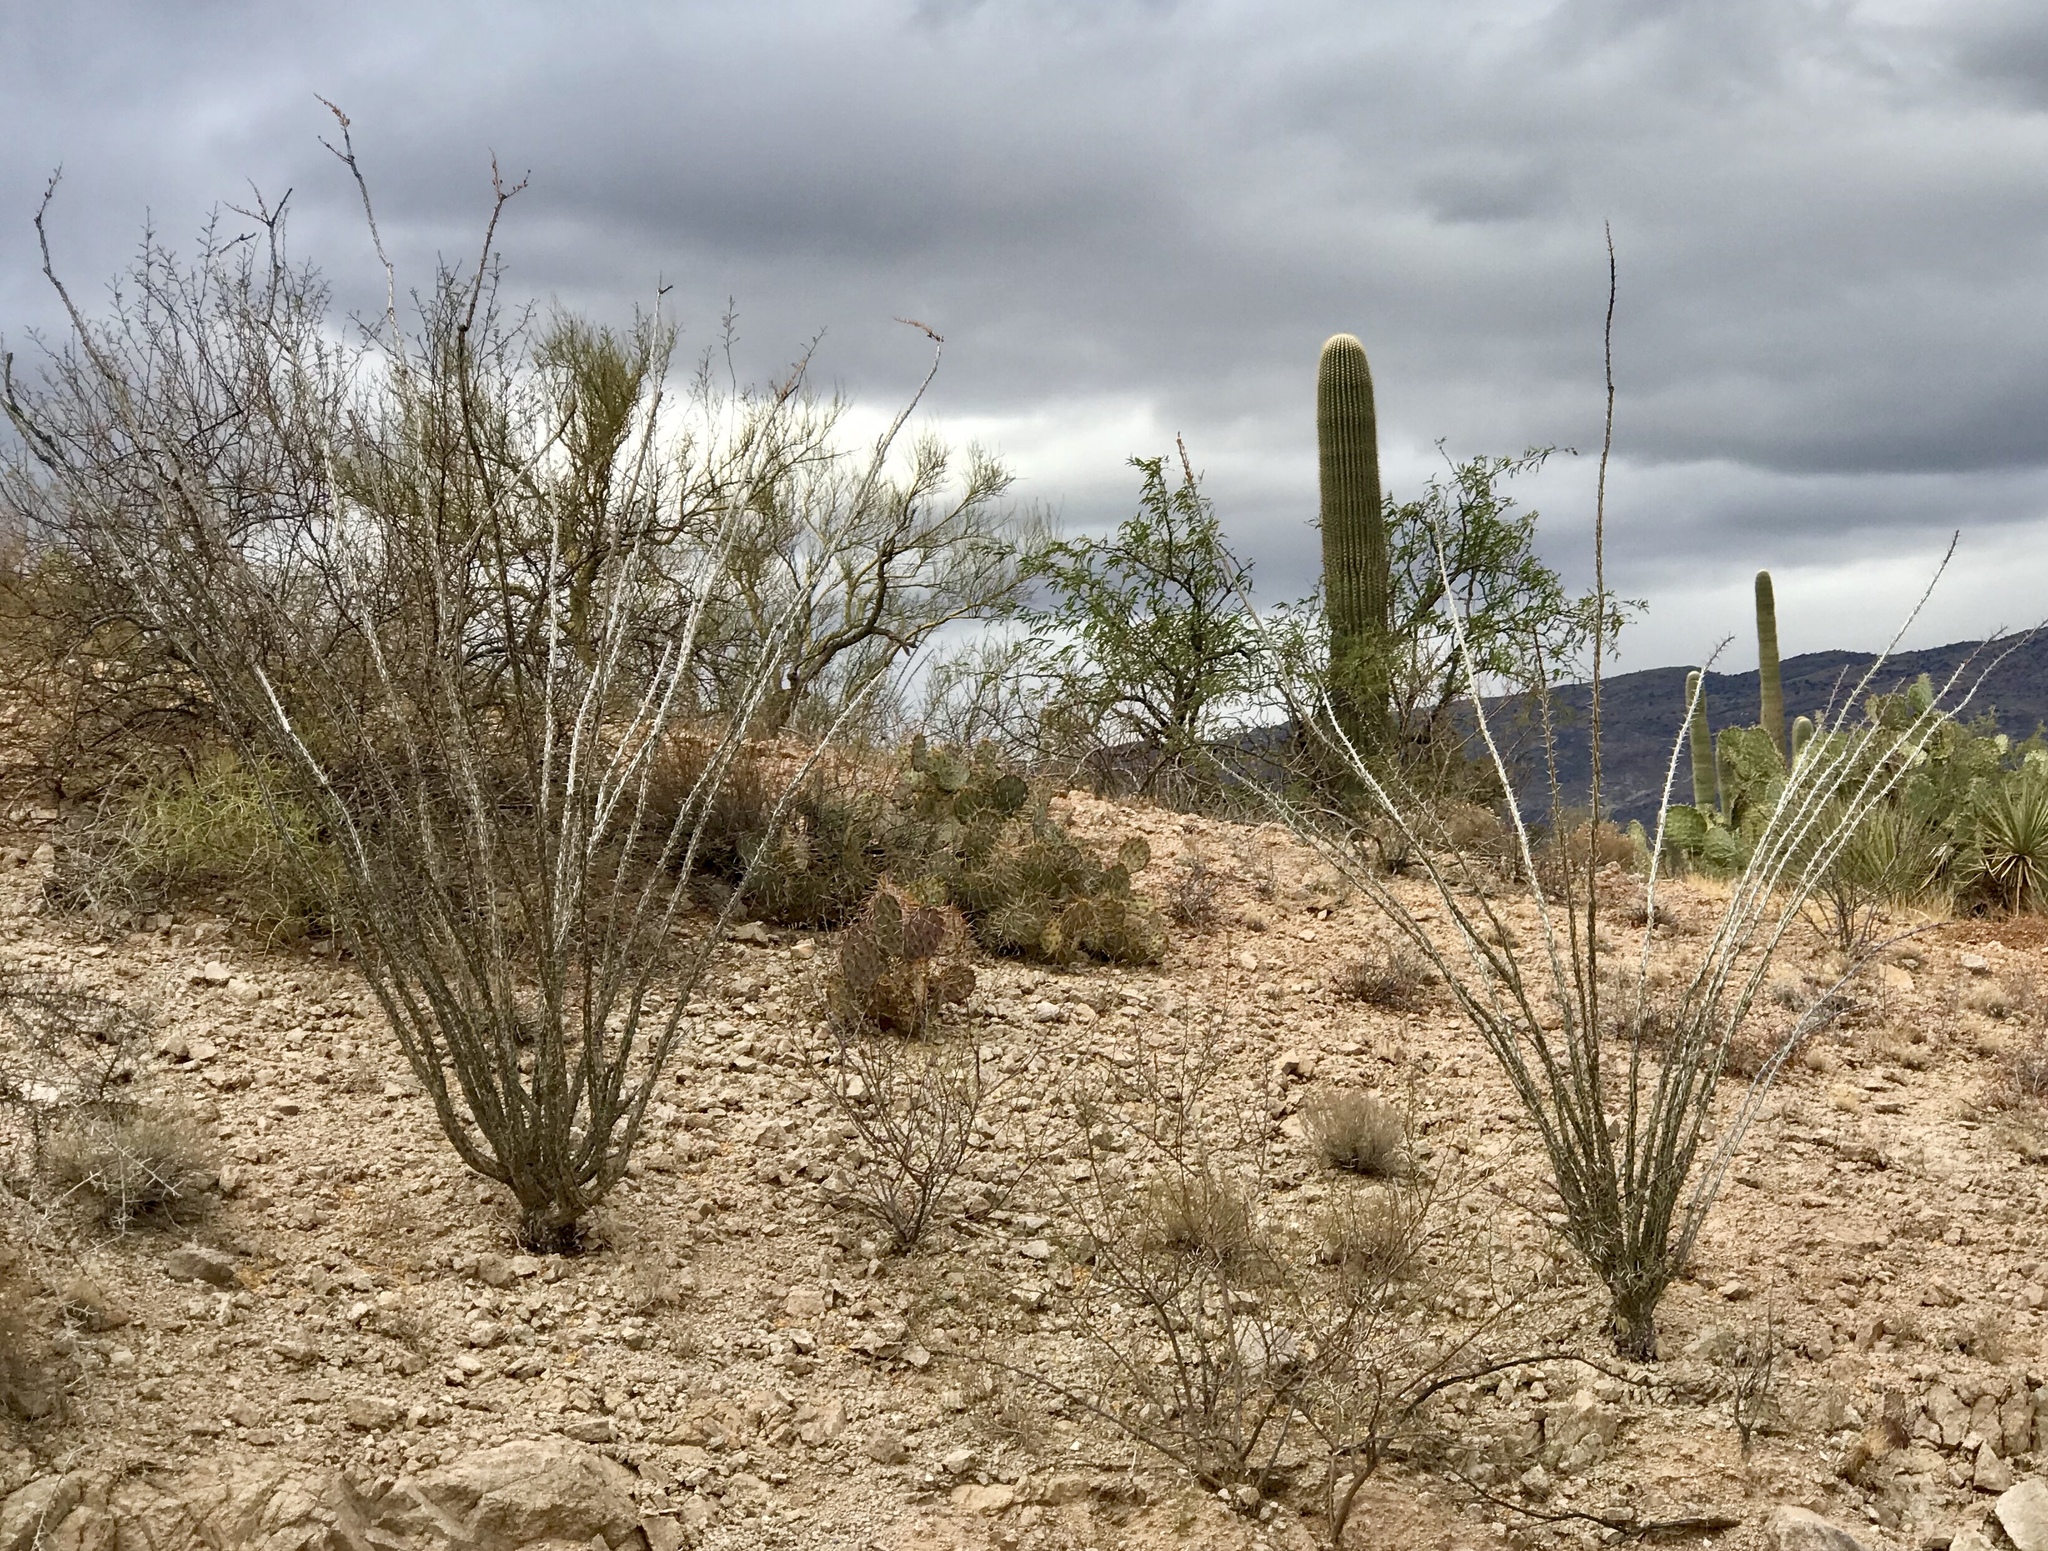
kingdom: Plantae
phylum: Tracheophyta
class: Magnoliopsida
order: Ericales
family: Fouquieriaceae
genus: Fouquieria
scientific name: Fouquieria splendens
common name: Vine-cactus
